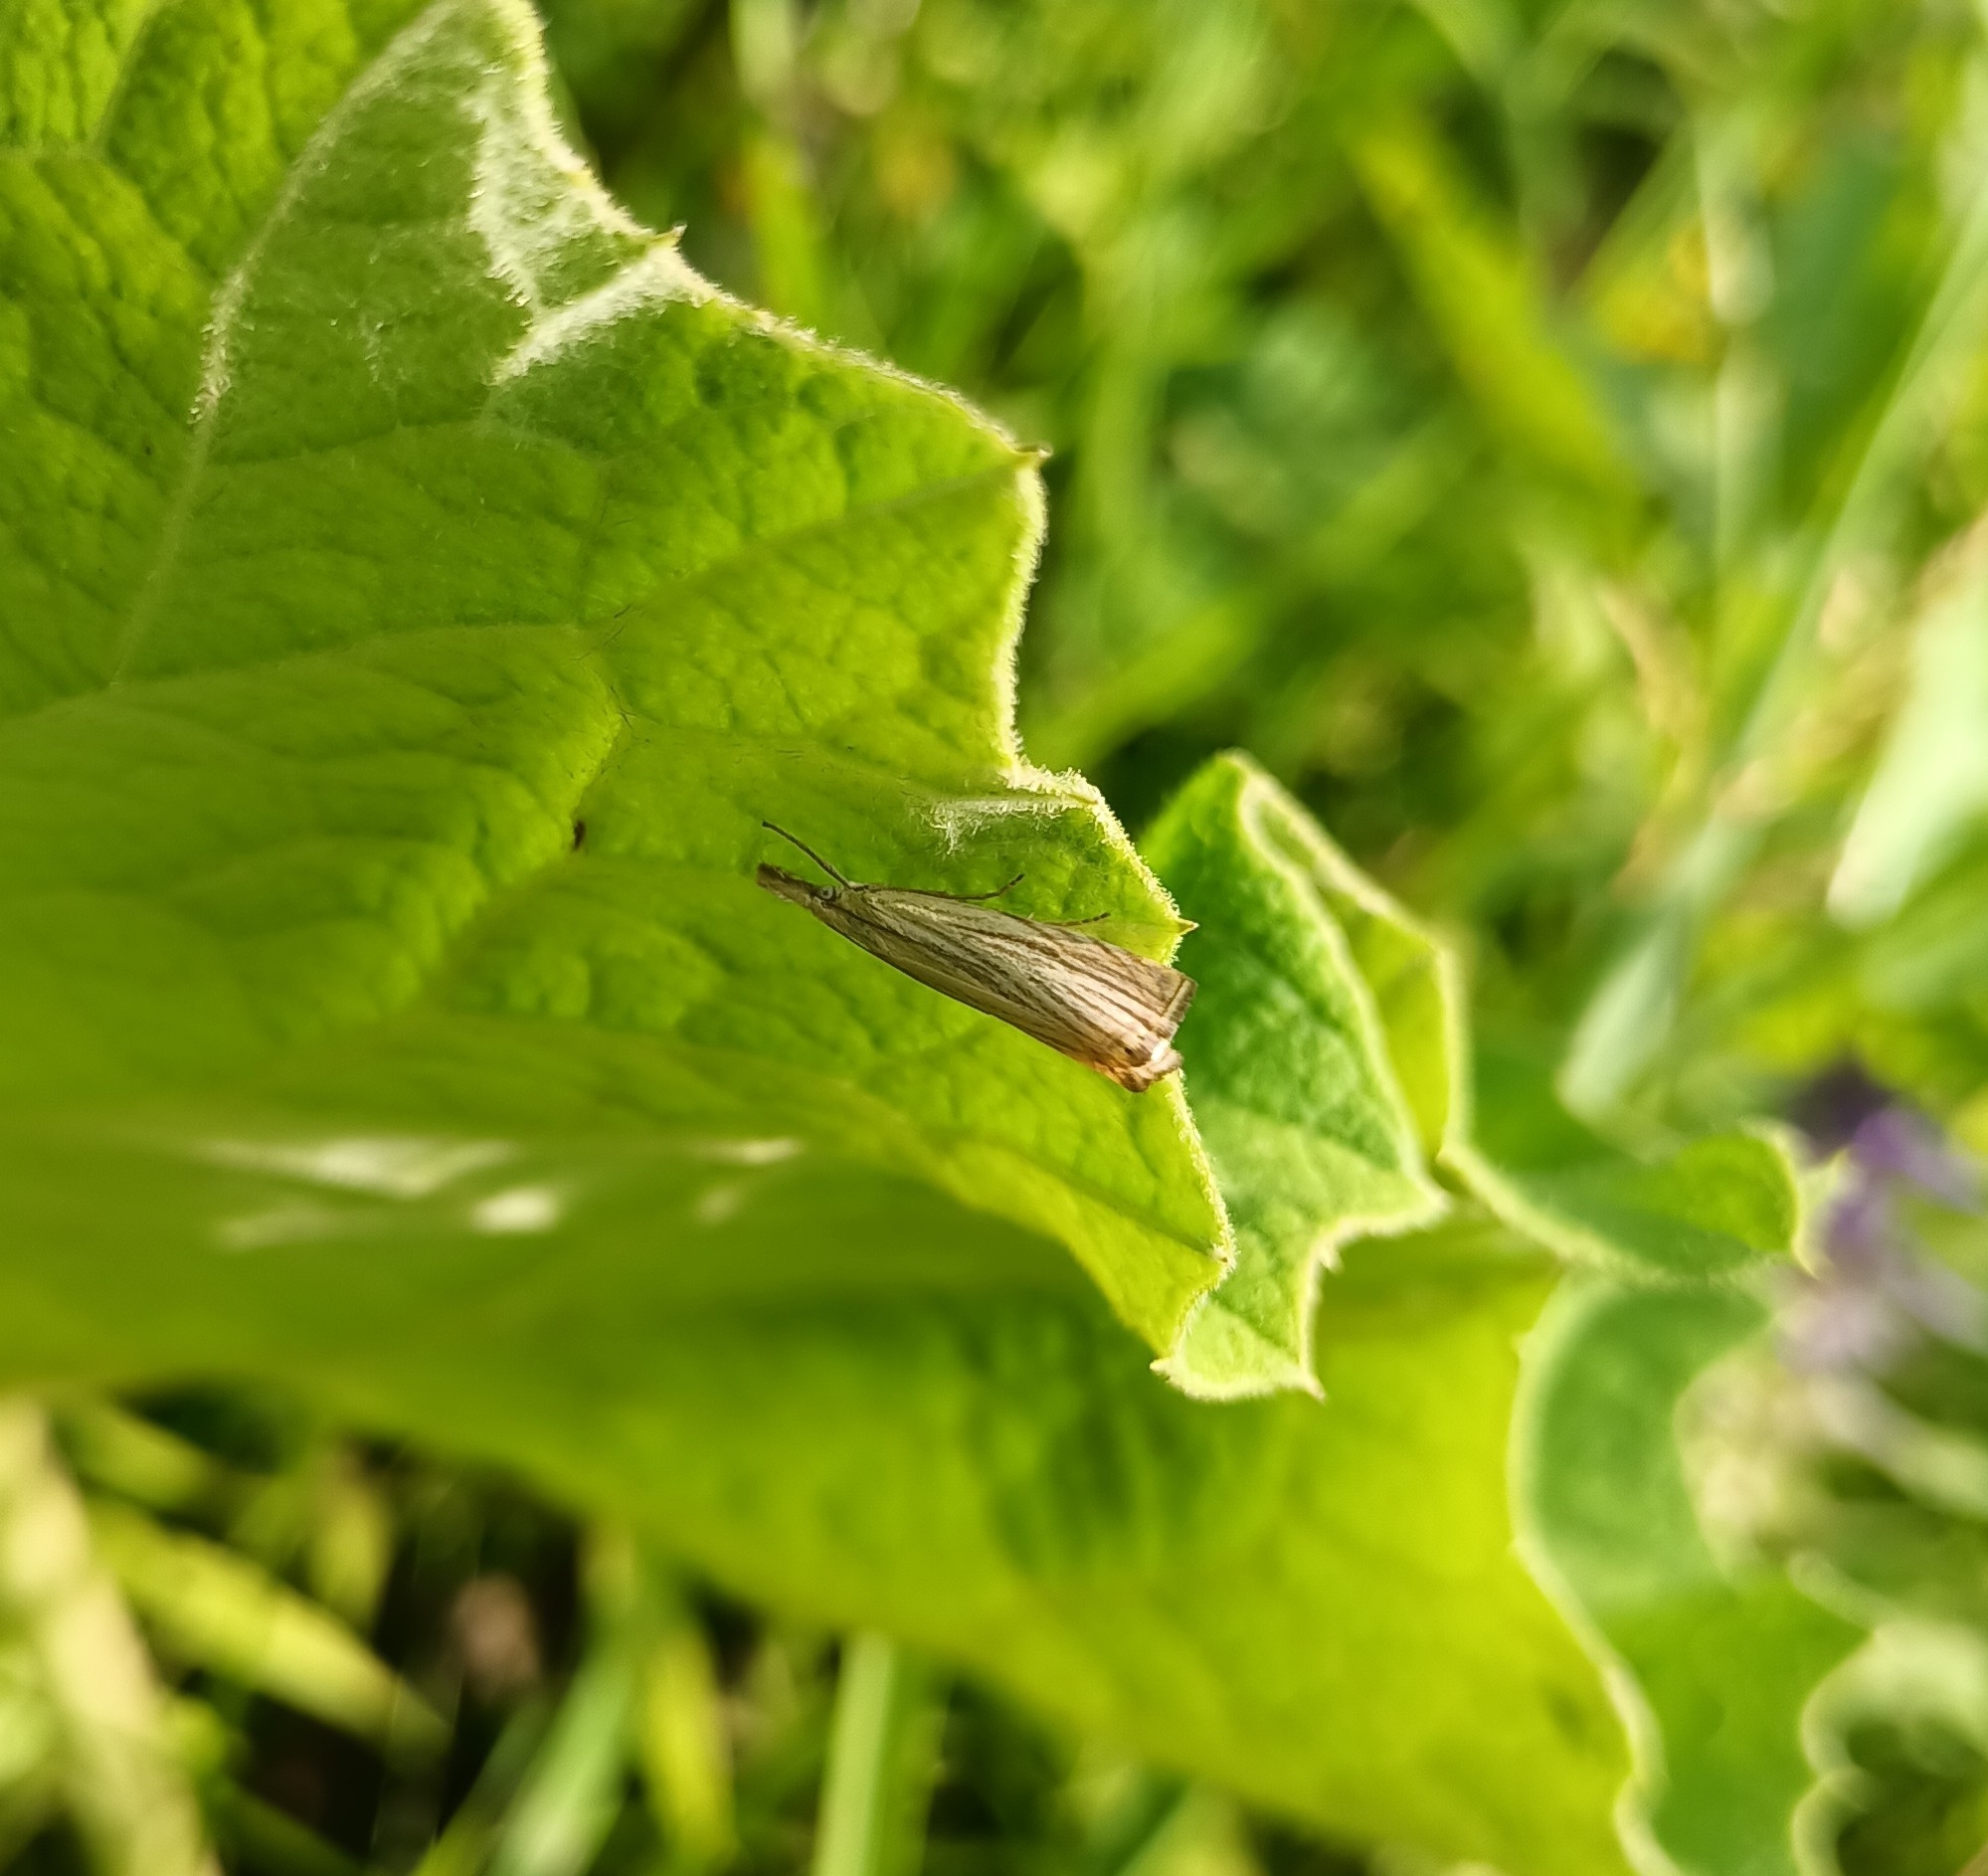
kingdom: Animalia
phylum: Arthropoda
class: Insecta
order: Lepidoptera
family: Crambidae
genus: Chrysoteuchia
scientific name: Chrysoteuchia culmella
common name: Garden grass-veneer
